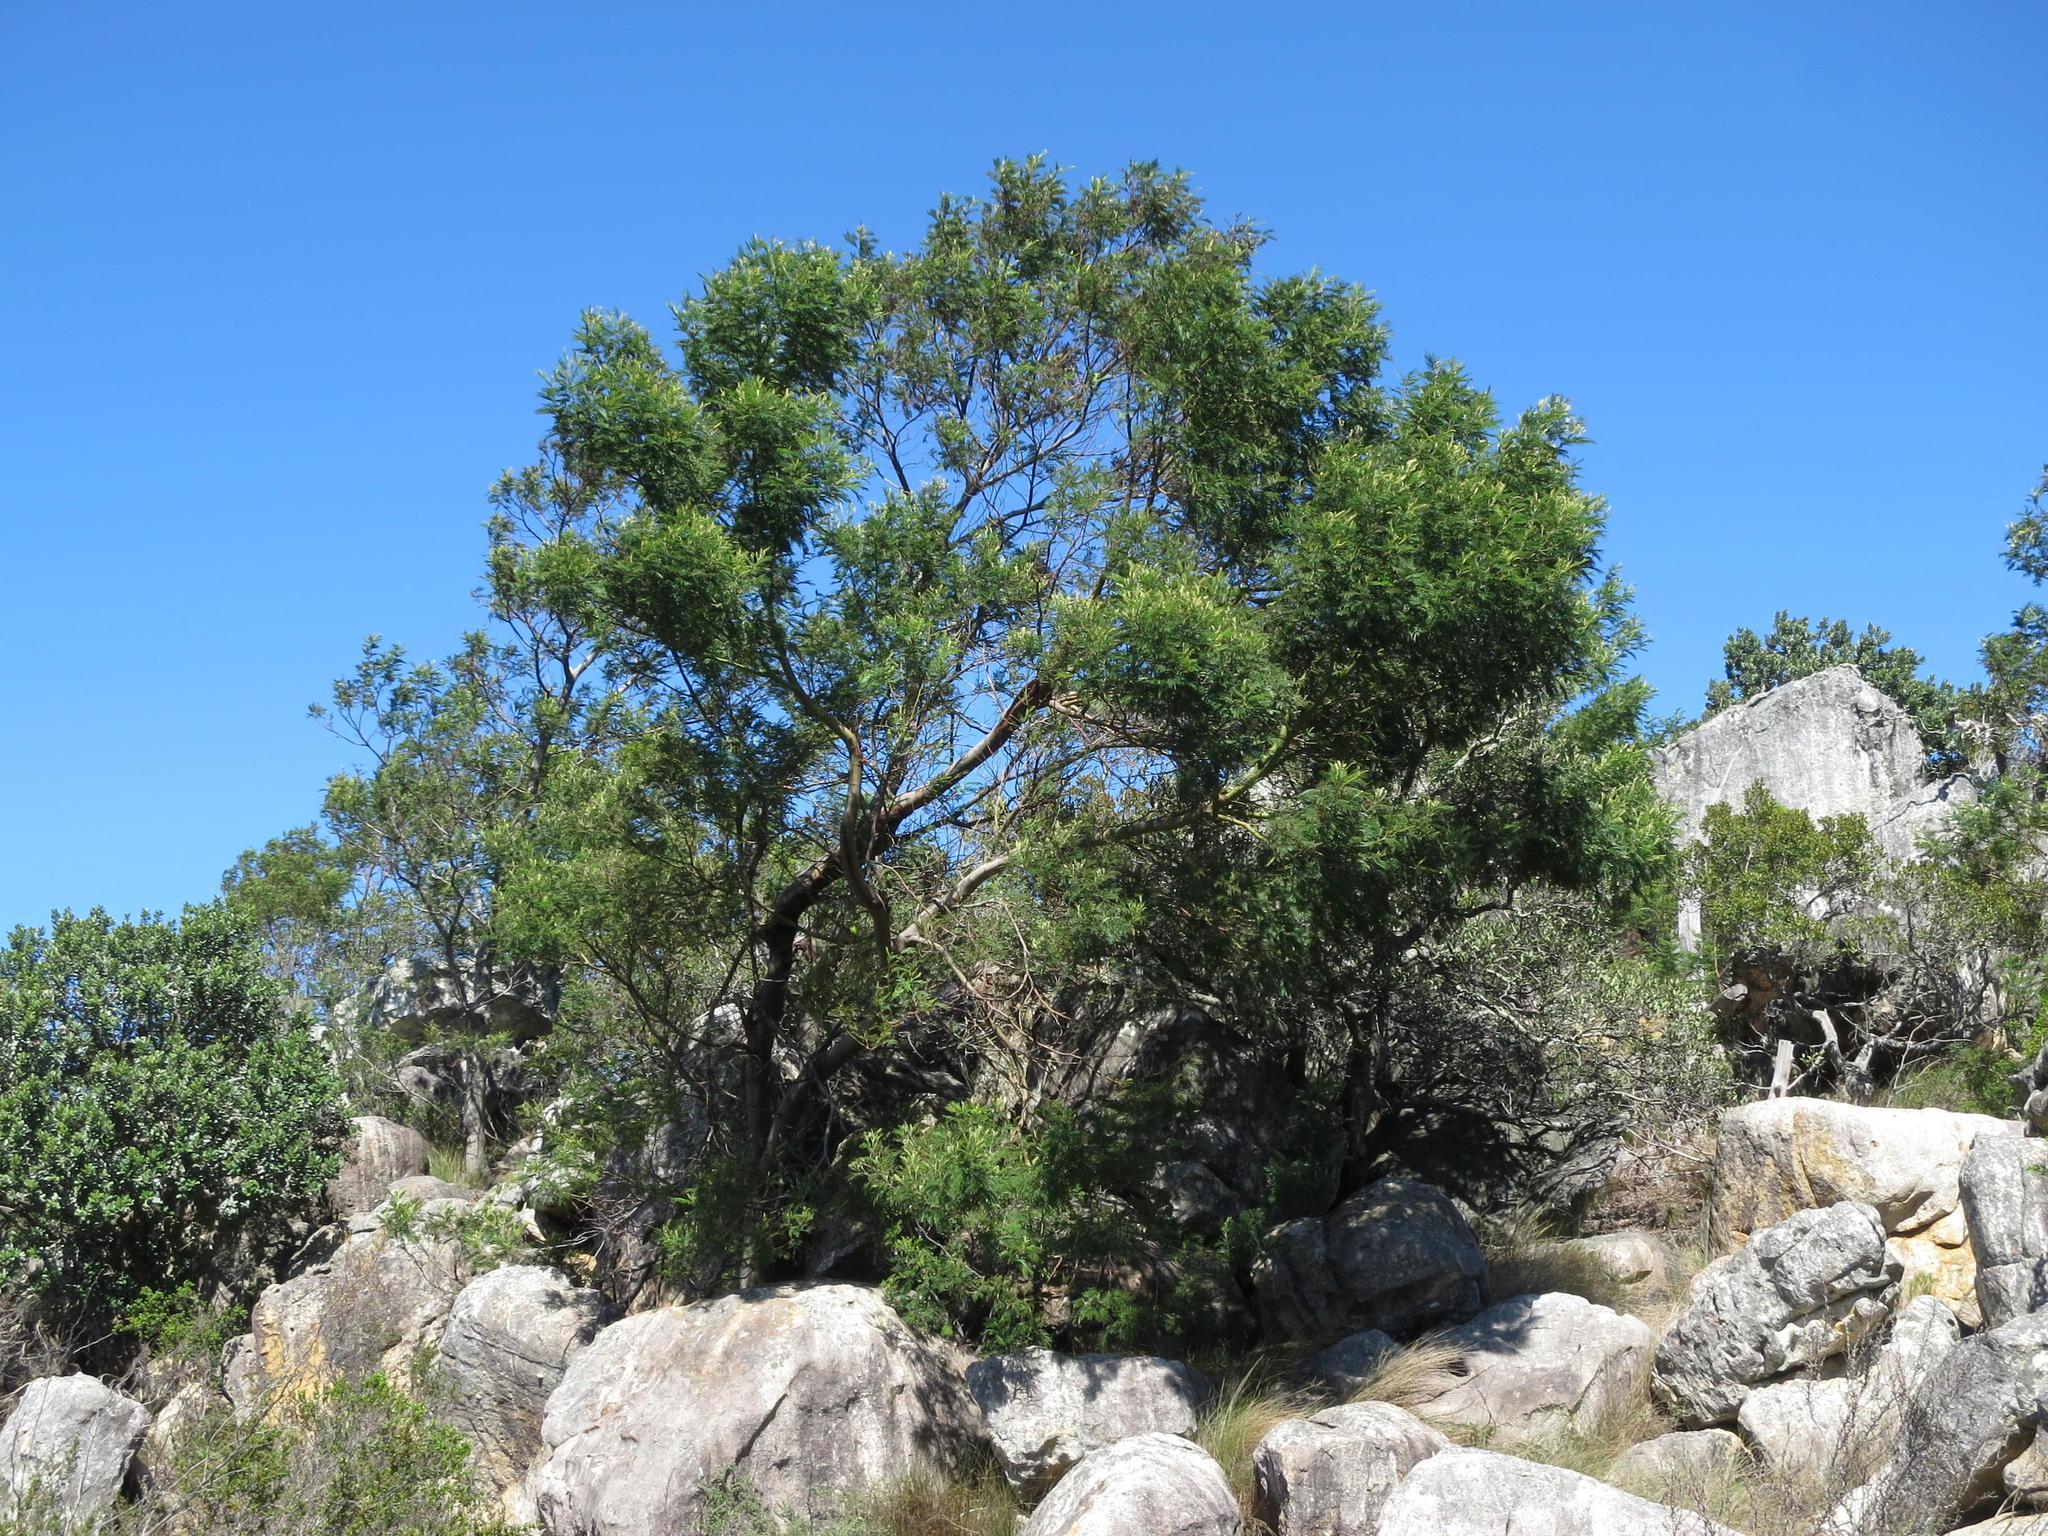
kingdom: Plantae
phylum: Tracheophyta
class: Magnoliopsida
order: Fabales
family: Fabaceae
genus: Acacia
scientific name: Acacia mearnsii
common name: Black wattle
